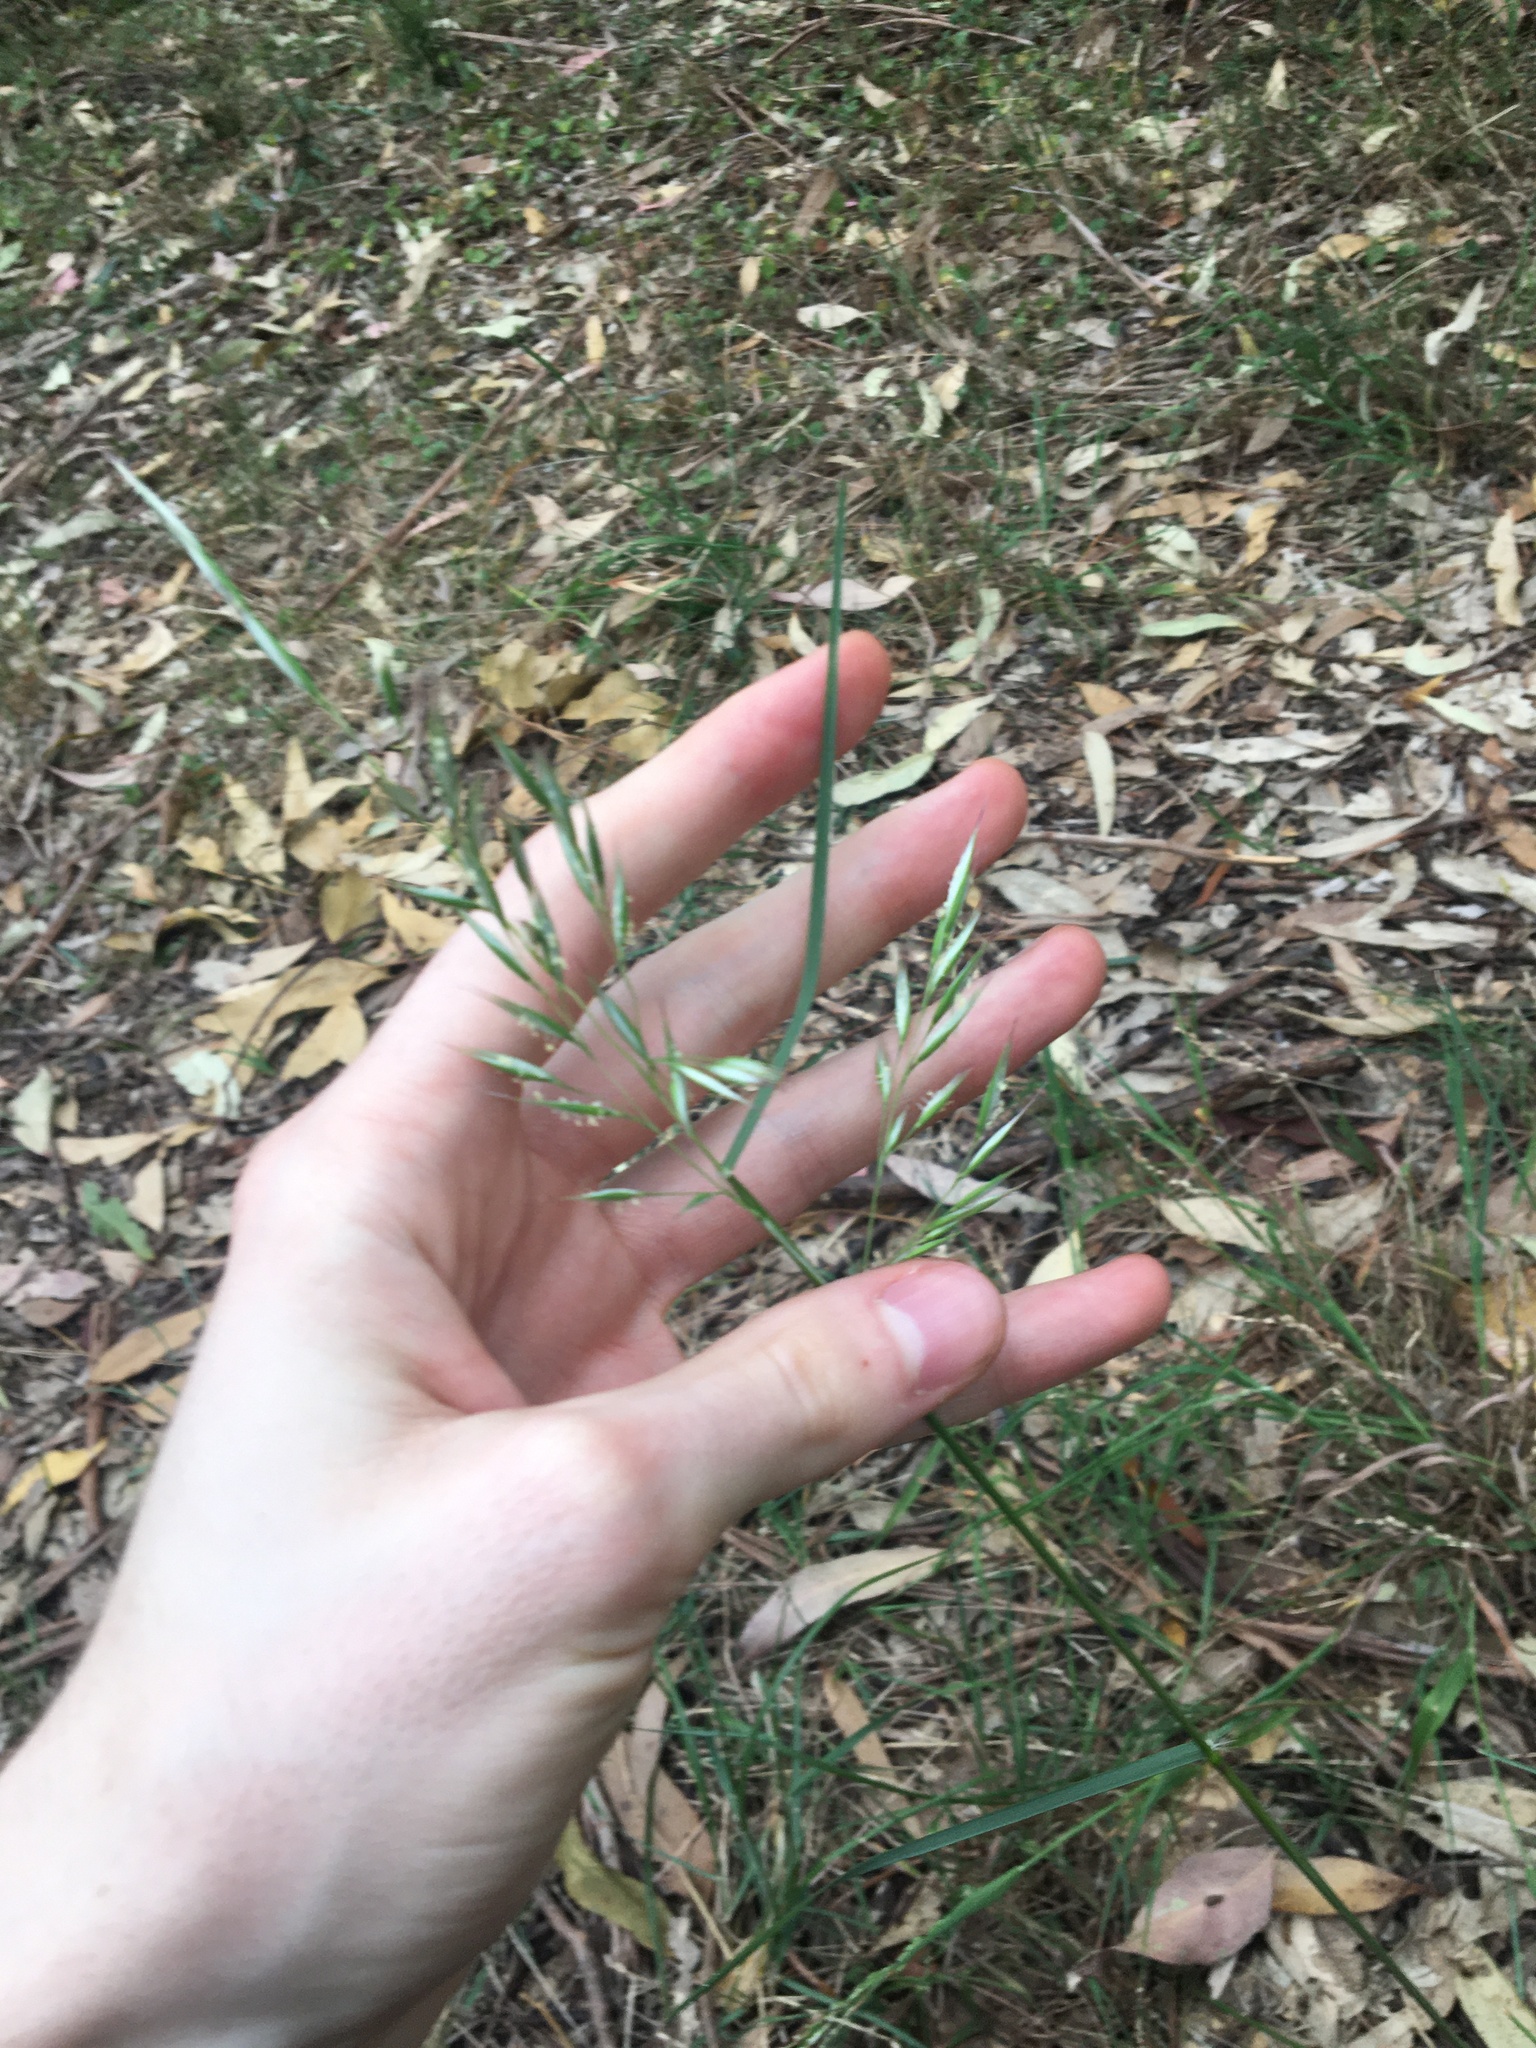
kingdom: Plantae
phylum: Tracheophyta
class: Liliopsida
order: Poales
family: Poaceae
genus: Rytidosperma
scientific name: Rytidosperma
